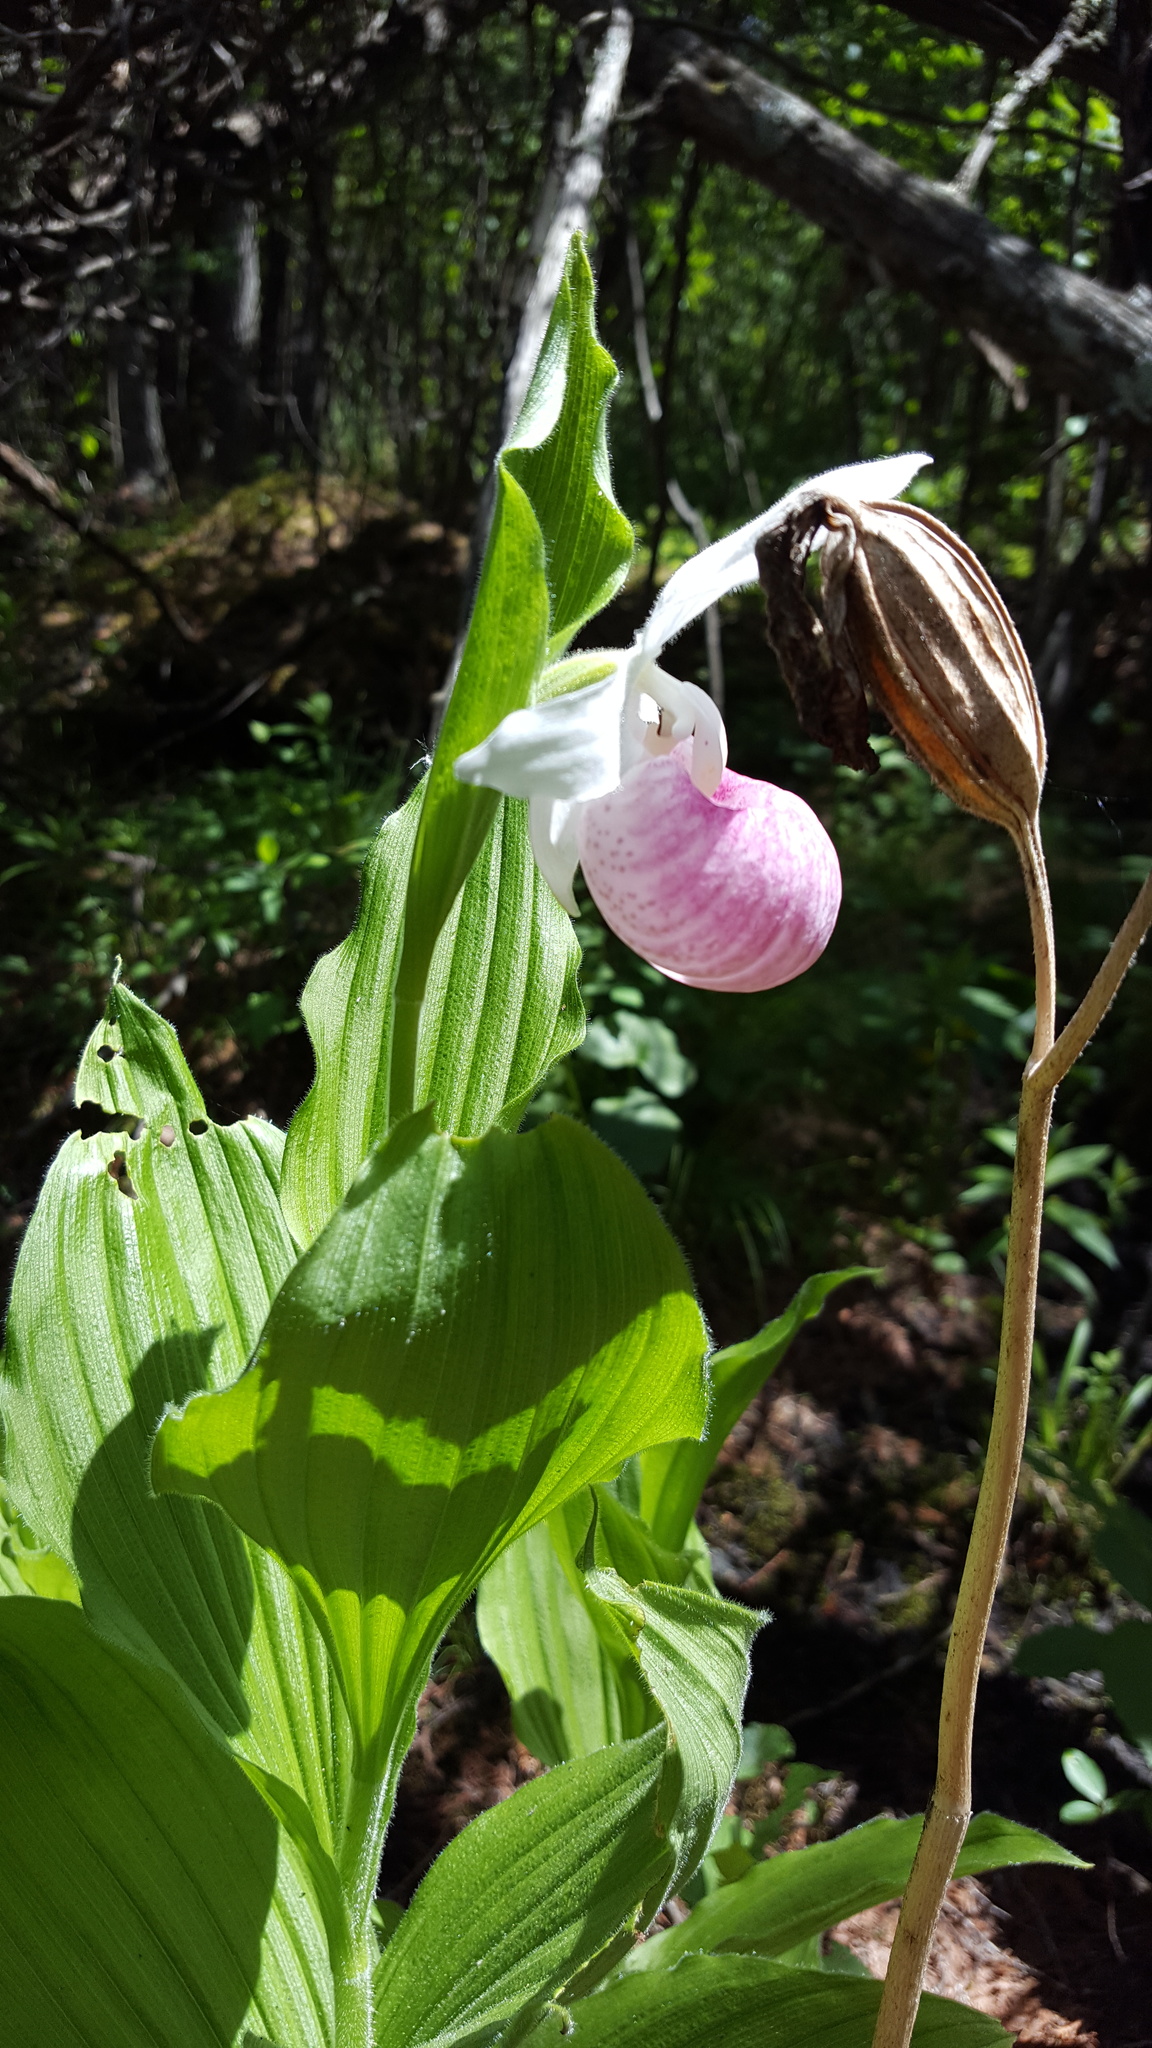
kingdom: Plantae
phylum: Tracheophyta
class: Liliopsida
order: Asparagales
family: Orchidaceae
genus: Cypripedium
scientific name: Cypripedium reginae
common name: Queen lady's-slipper
